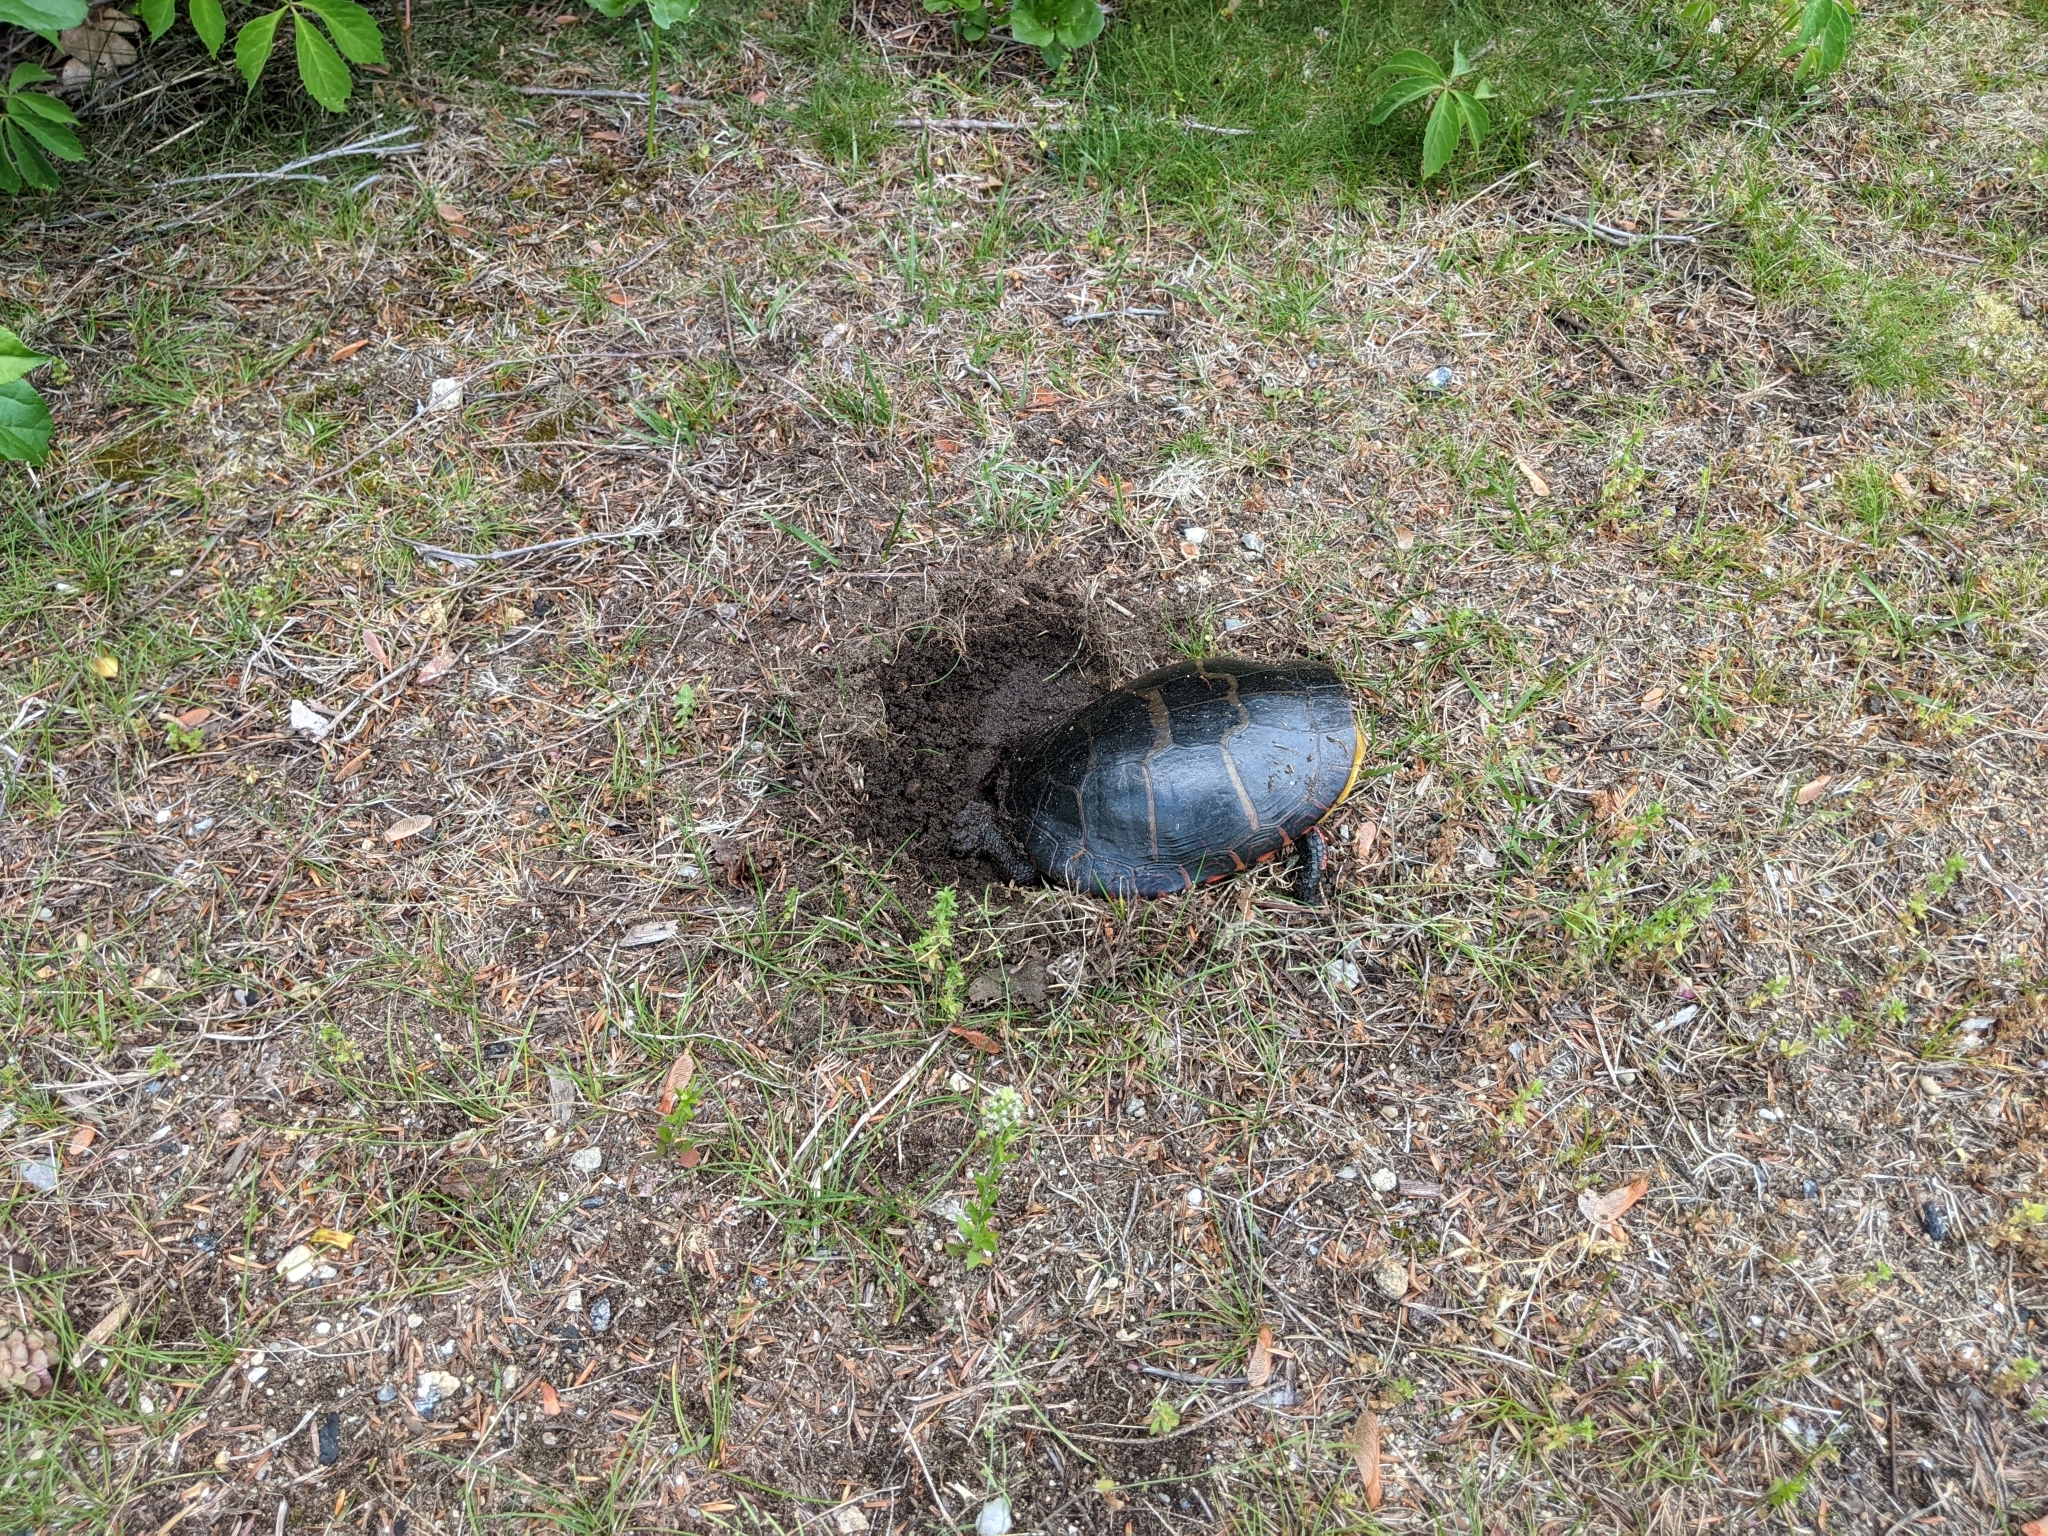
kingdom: Animalia
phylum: Chordata
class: Testudines
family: Emydidae
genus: Chrysemys
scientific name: Chrysemys picta
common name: Painted turtle
